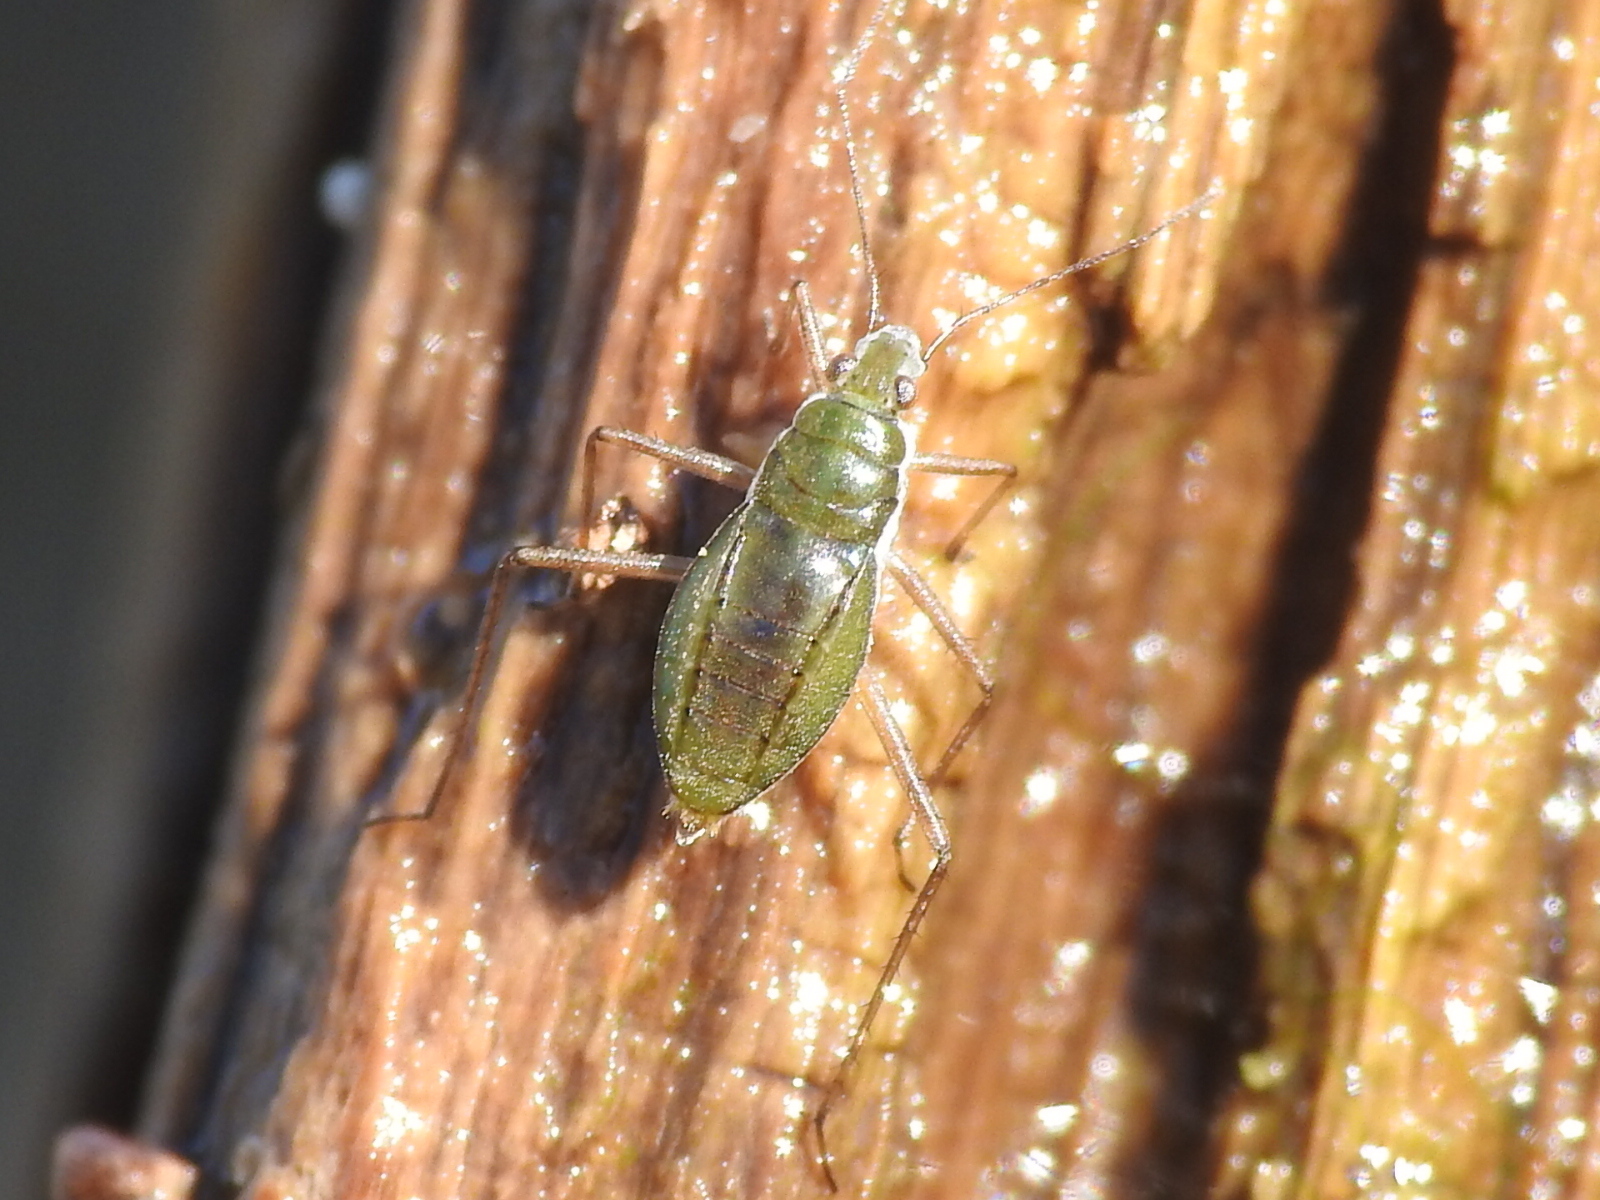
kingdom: Animalia
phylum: Arthropoda
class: Insecta
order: Hemiptera
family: Mesoveliidae
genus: Mesovelia
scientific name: Mesovelia mulsanti
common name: Water treaders
